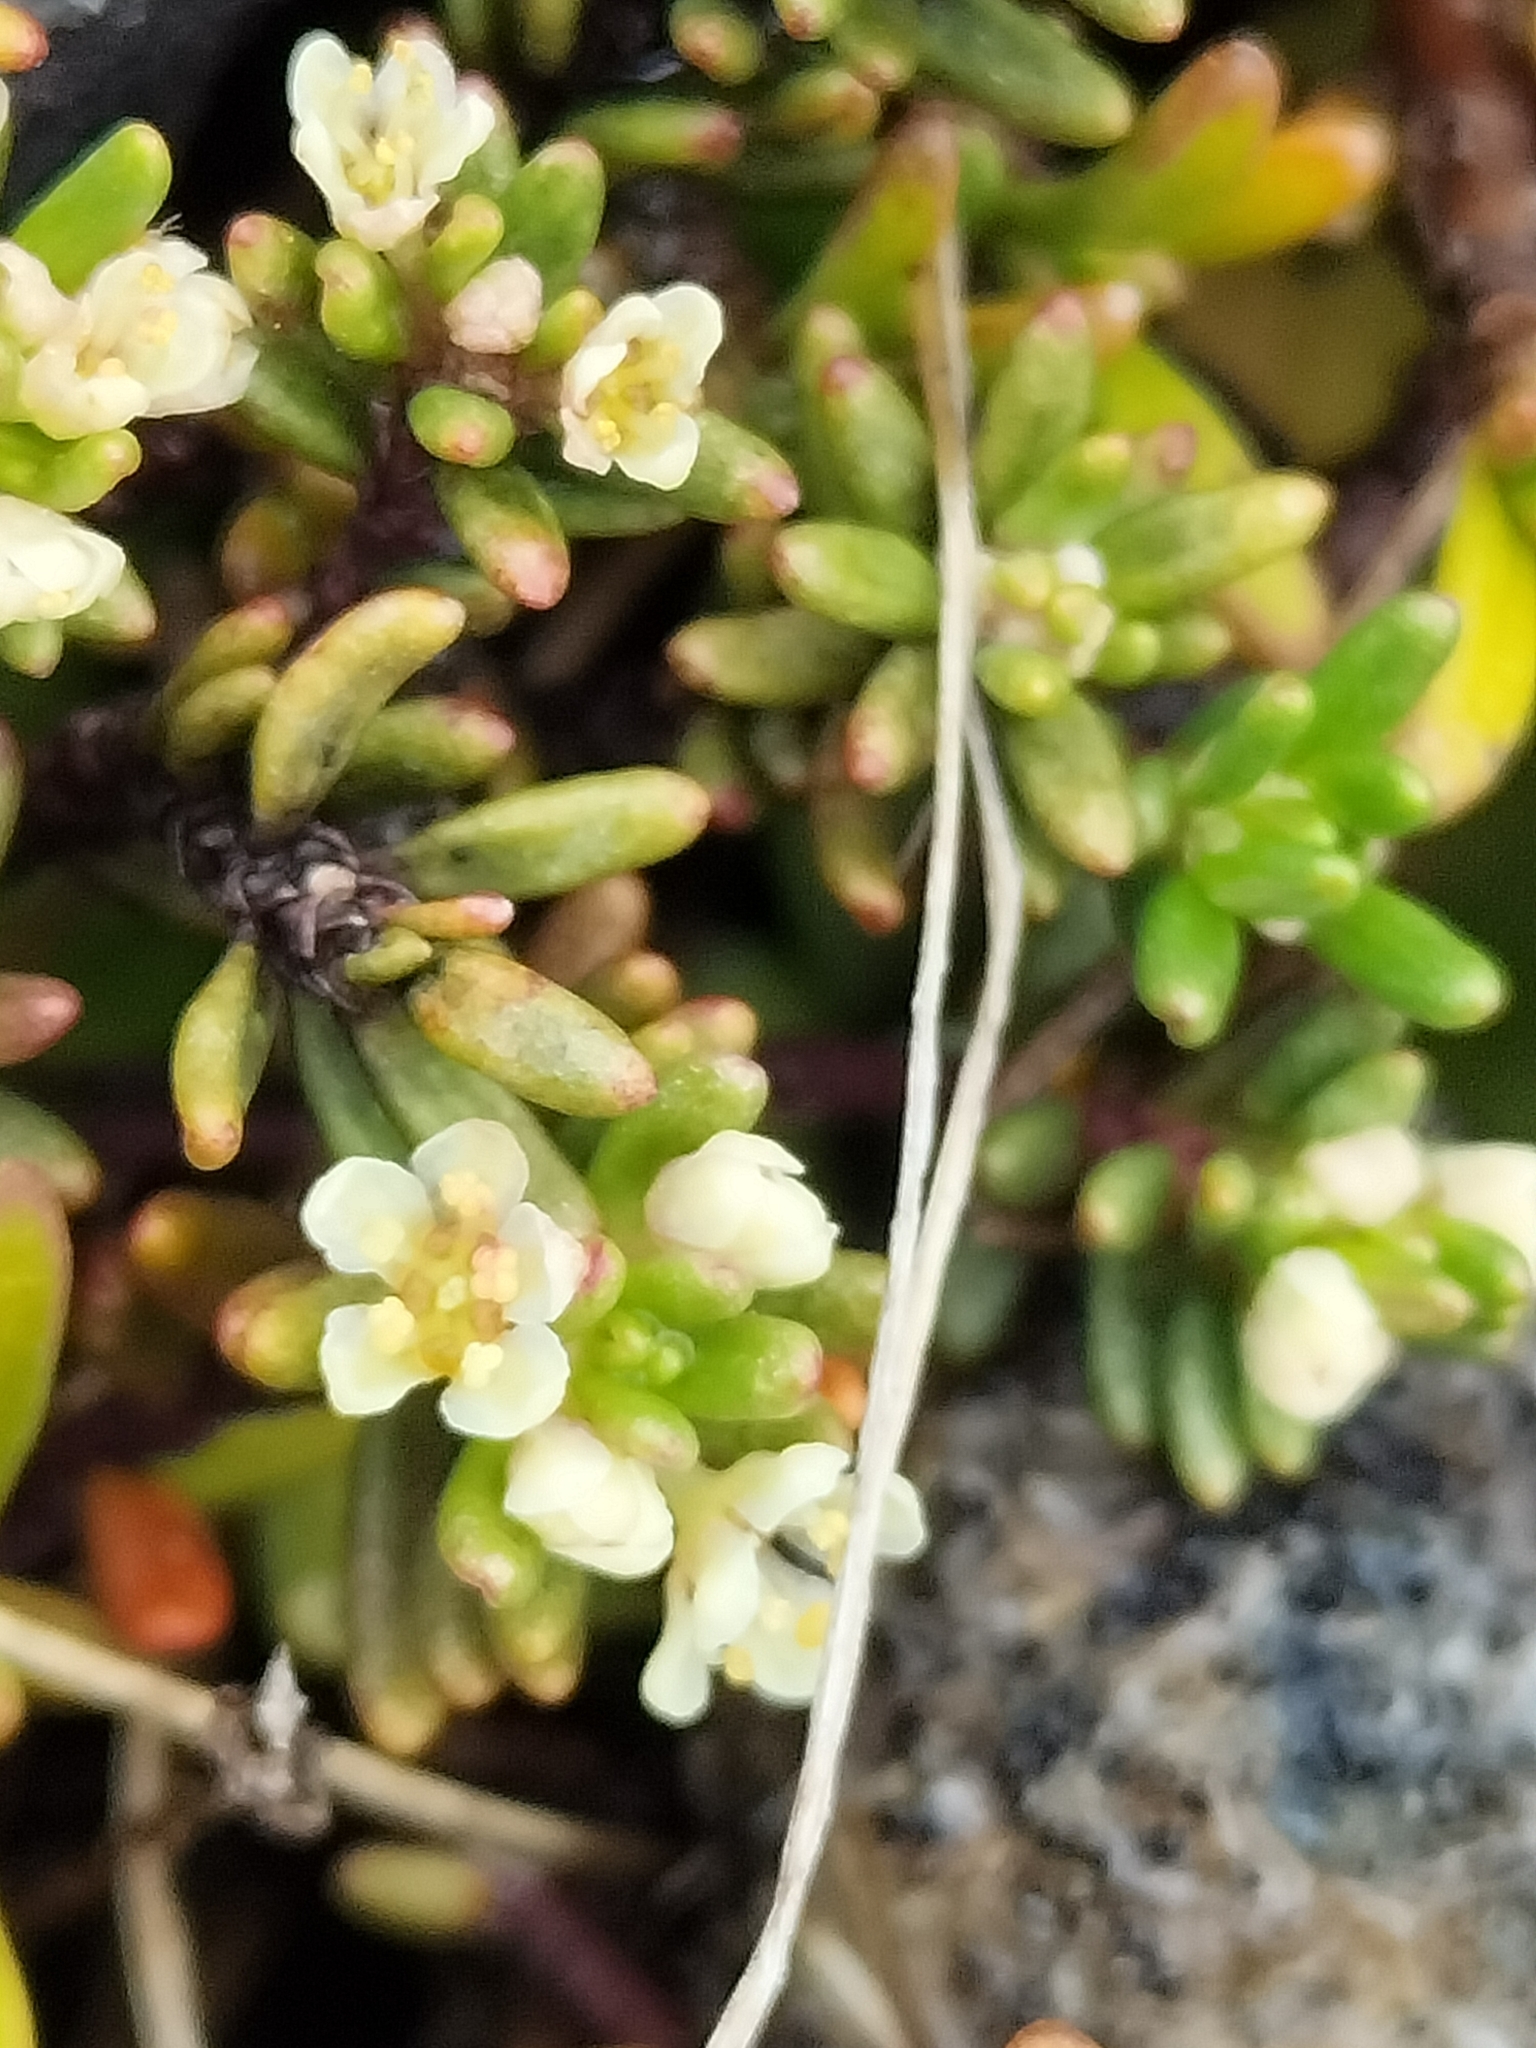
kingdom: Plantae
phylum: Tracheophyta
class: Magnoliopsida
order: Malpighiales
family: Phyllanthaceae
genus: Poranthera
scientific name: Poranthera alpina
